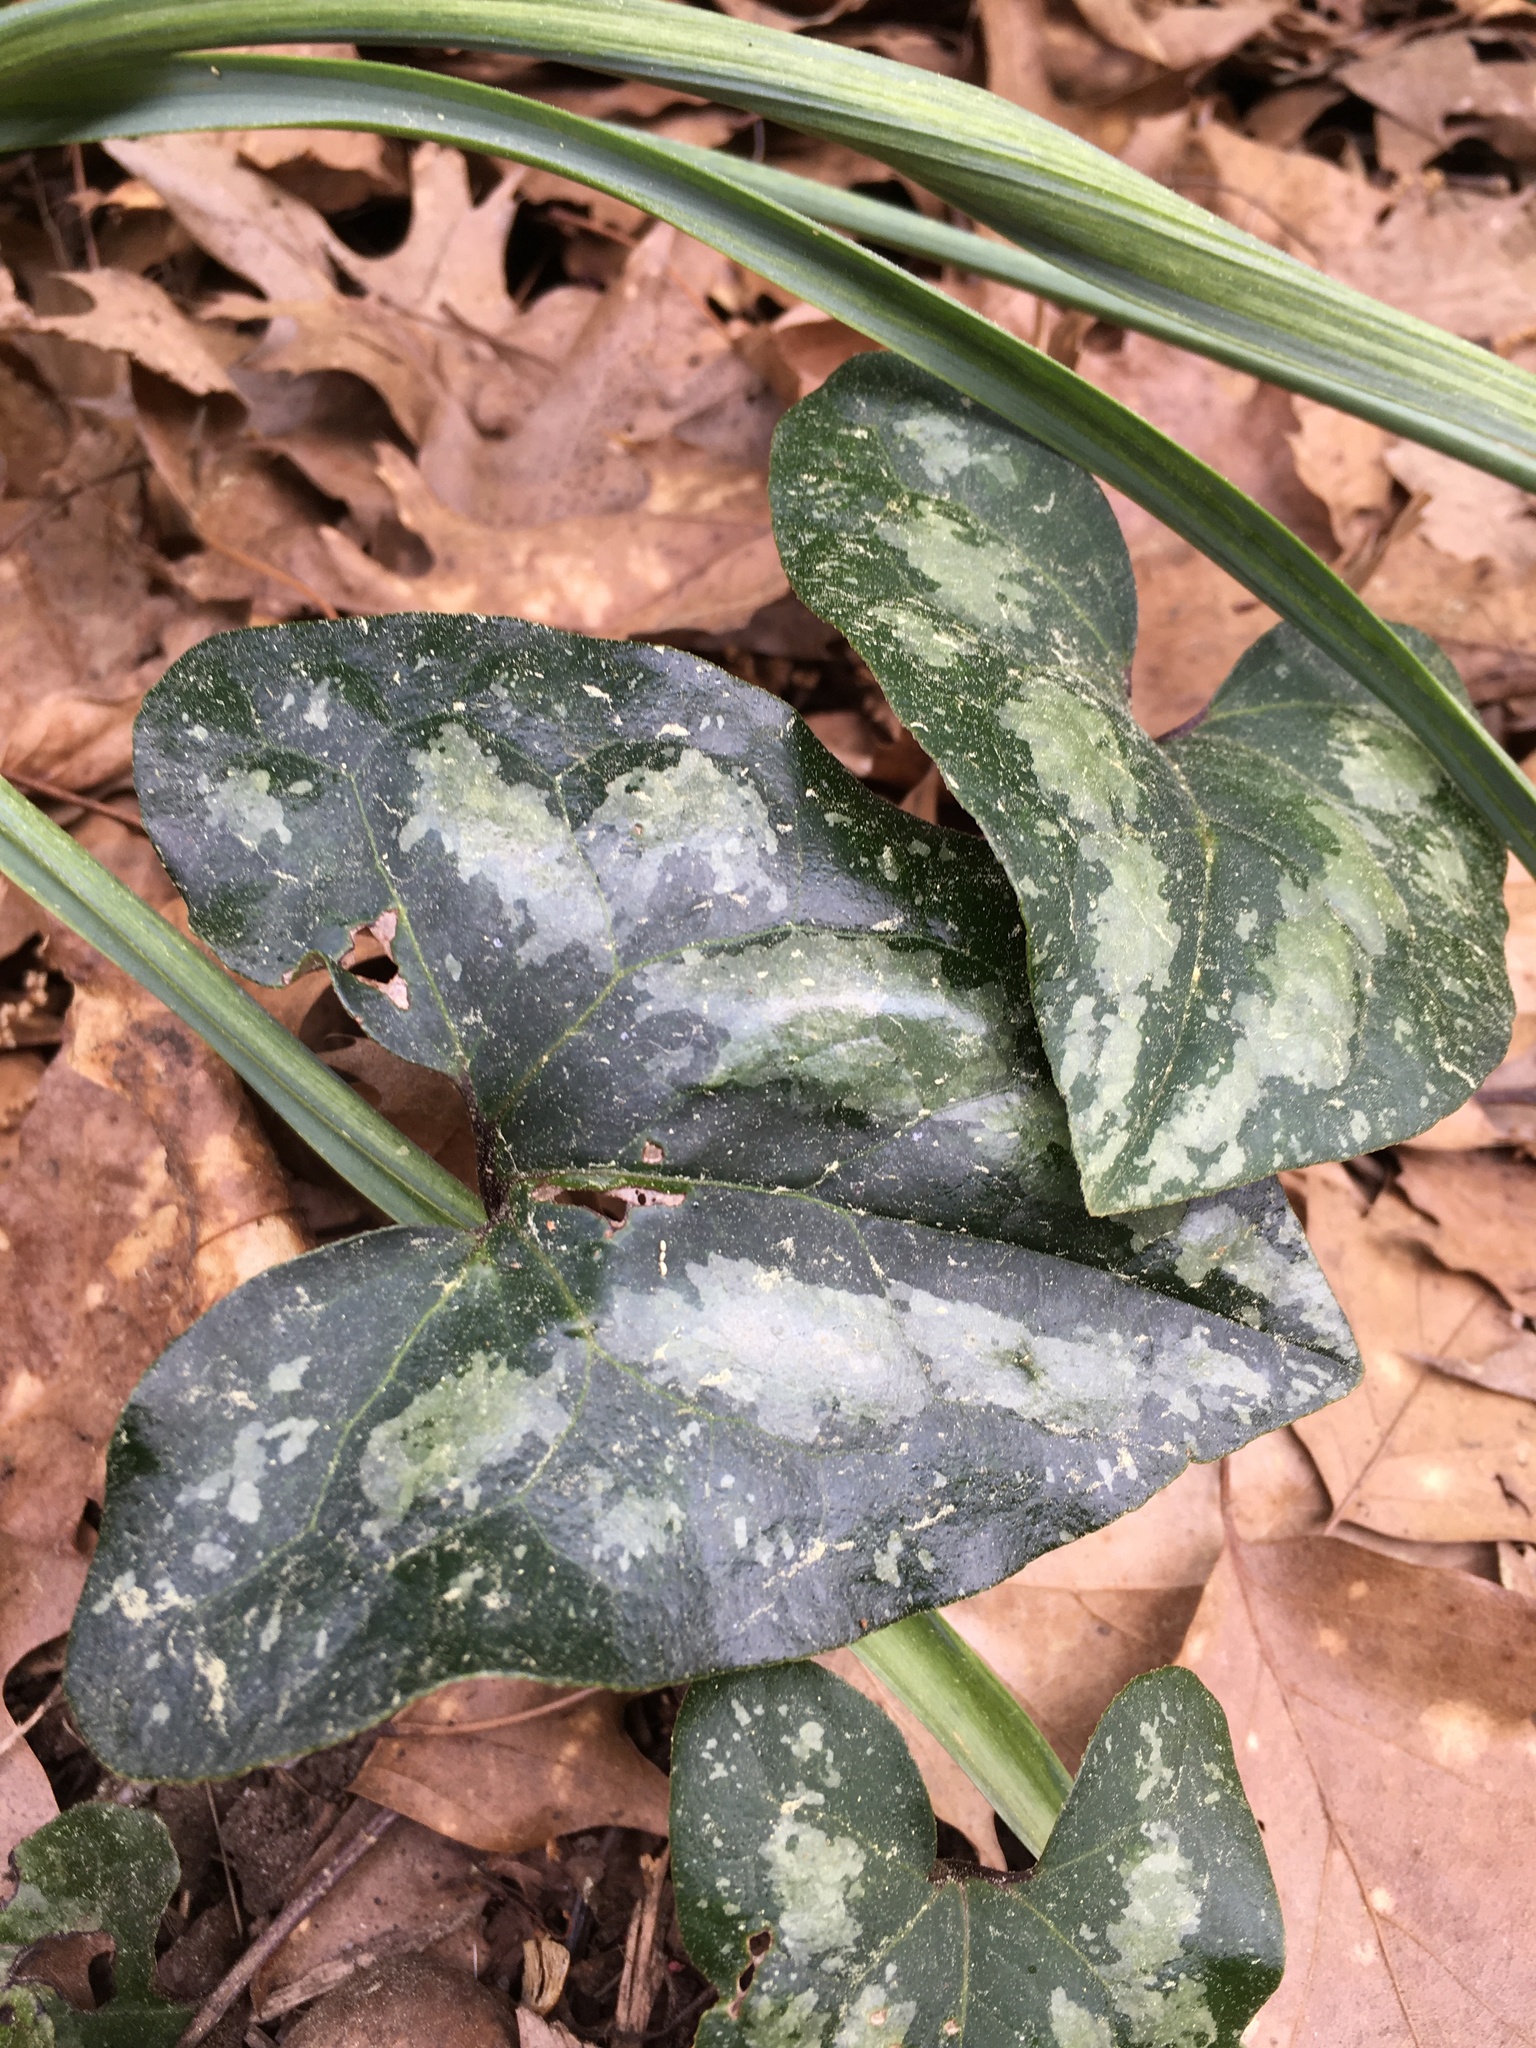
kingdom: Plantae
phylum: Tracheophyta
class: Magnoliopsida
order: Piperales
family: Aristolochiaceae
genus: Hexastylis
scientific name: Hexastylis arifolia
